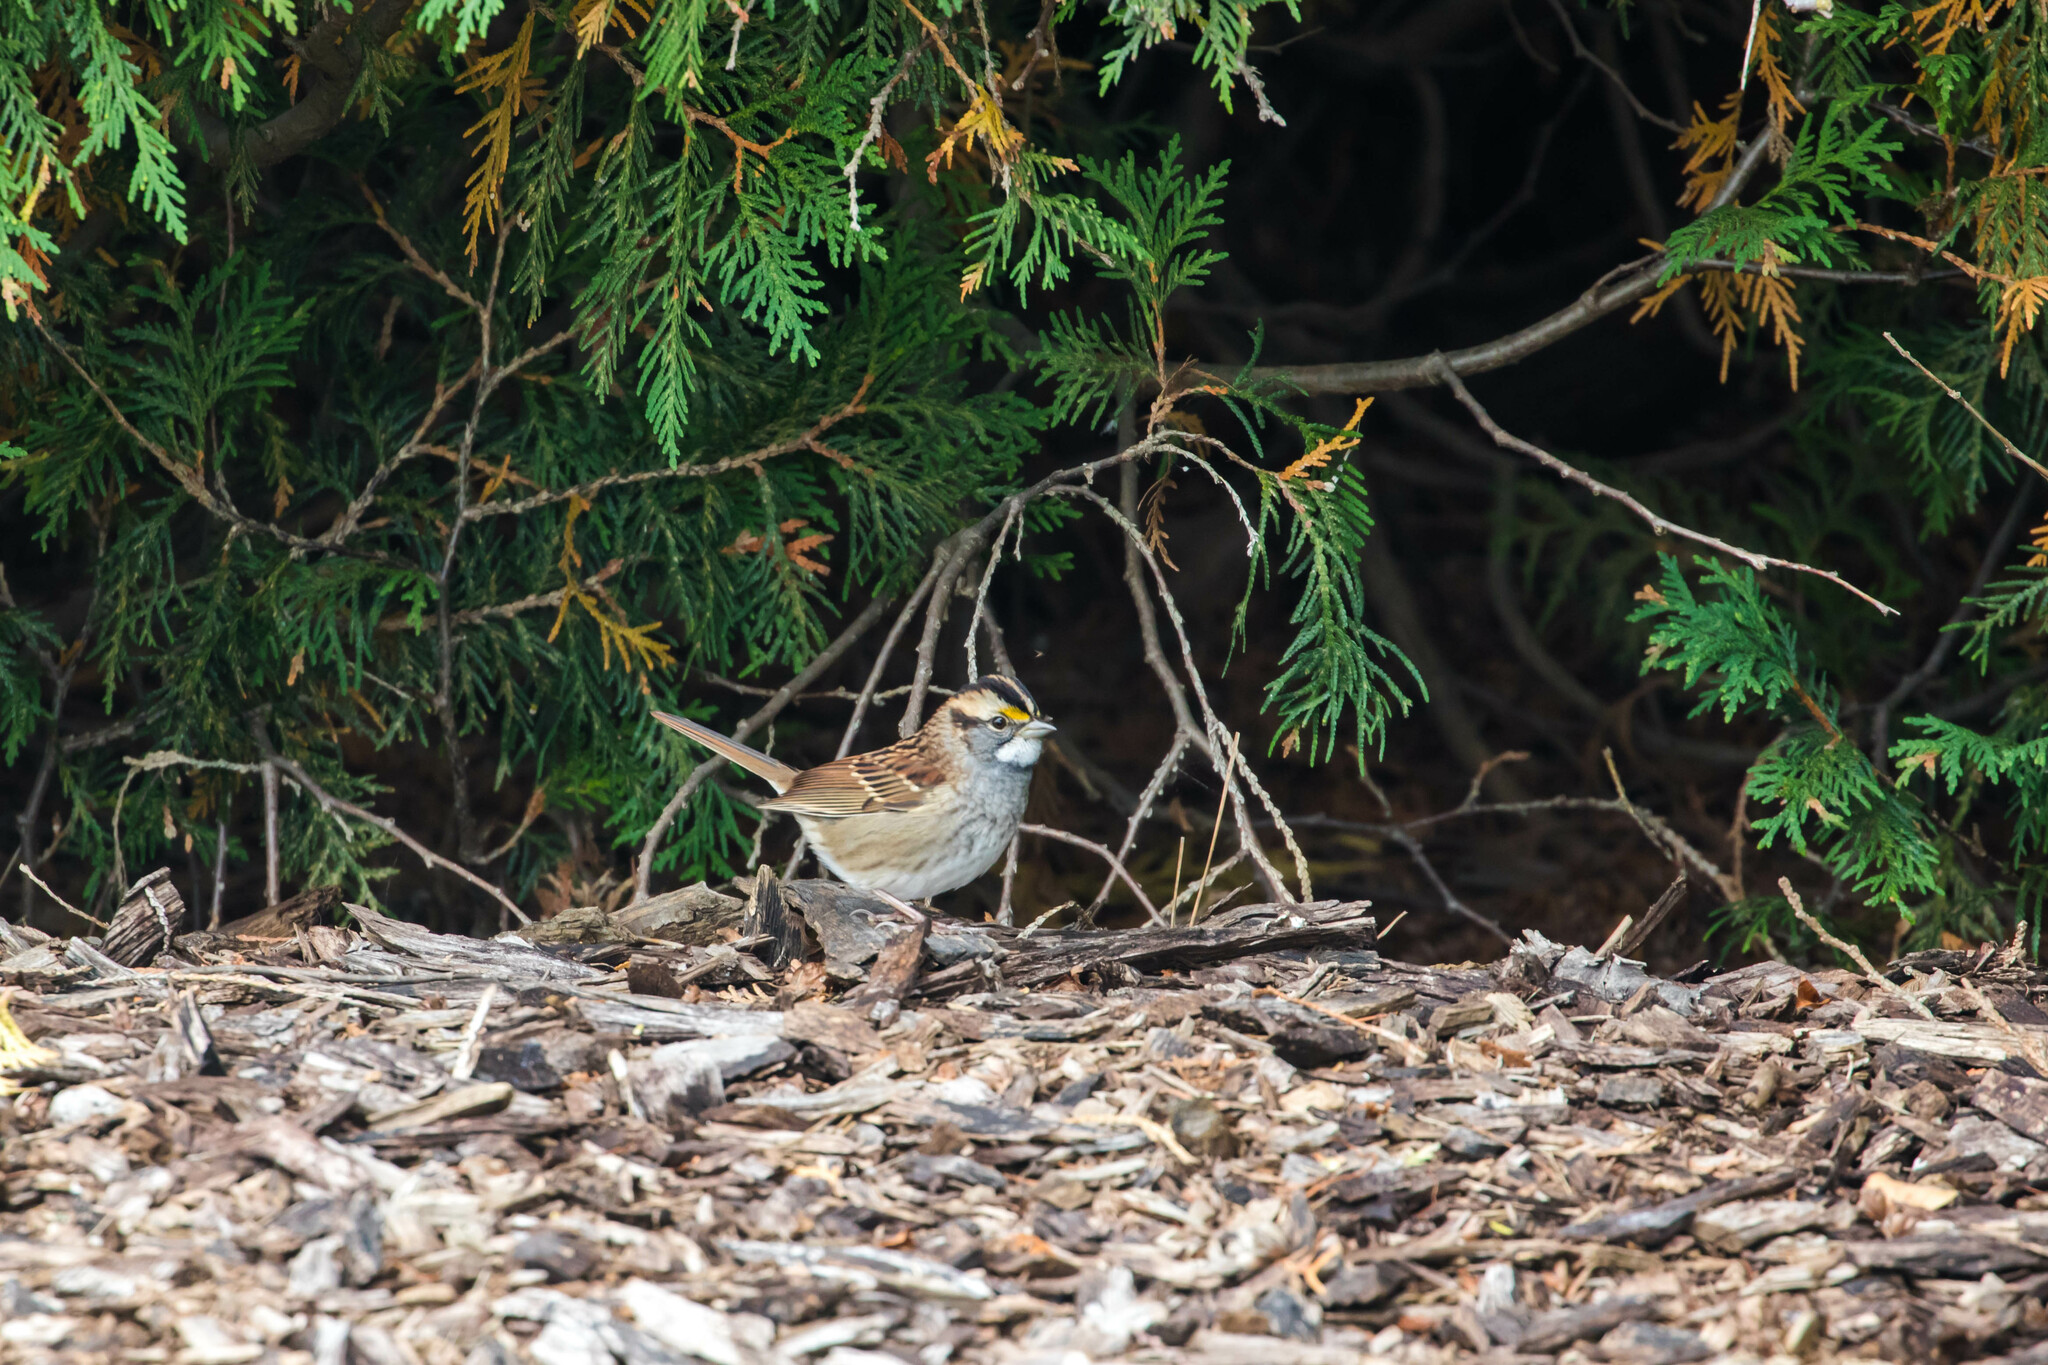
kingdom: Animalia
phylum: Chordata
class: Aves
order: Passeriformes
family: Passerellidae
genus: Zonotrichia
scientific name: Zonotrichia albicollis
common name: White-throated sparrow
